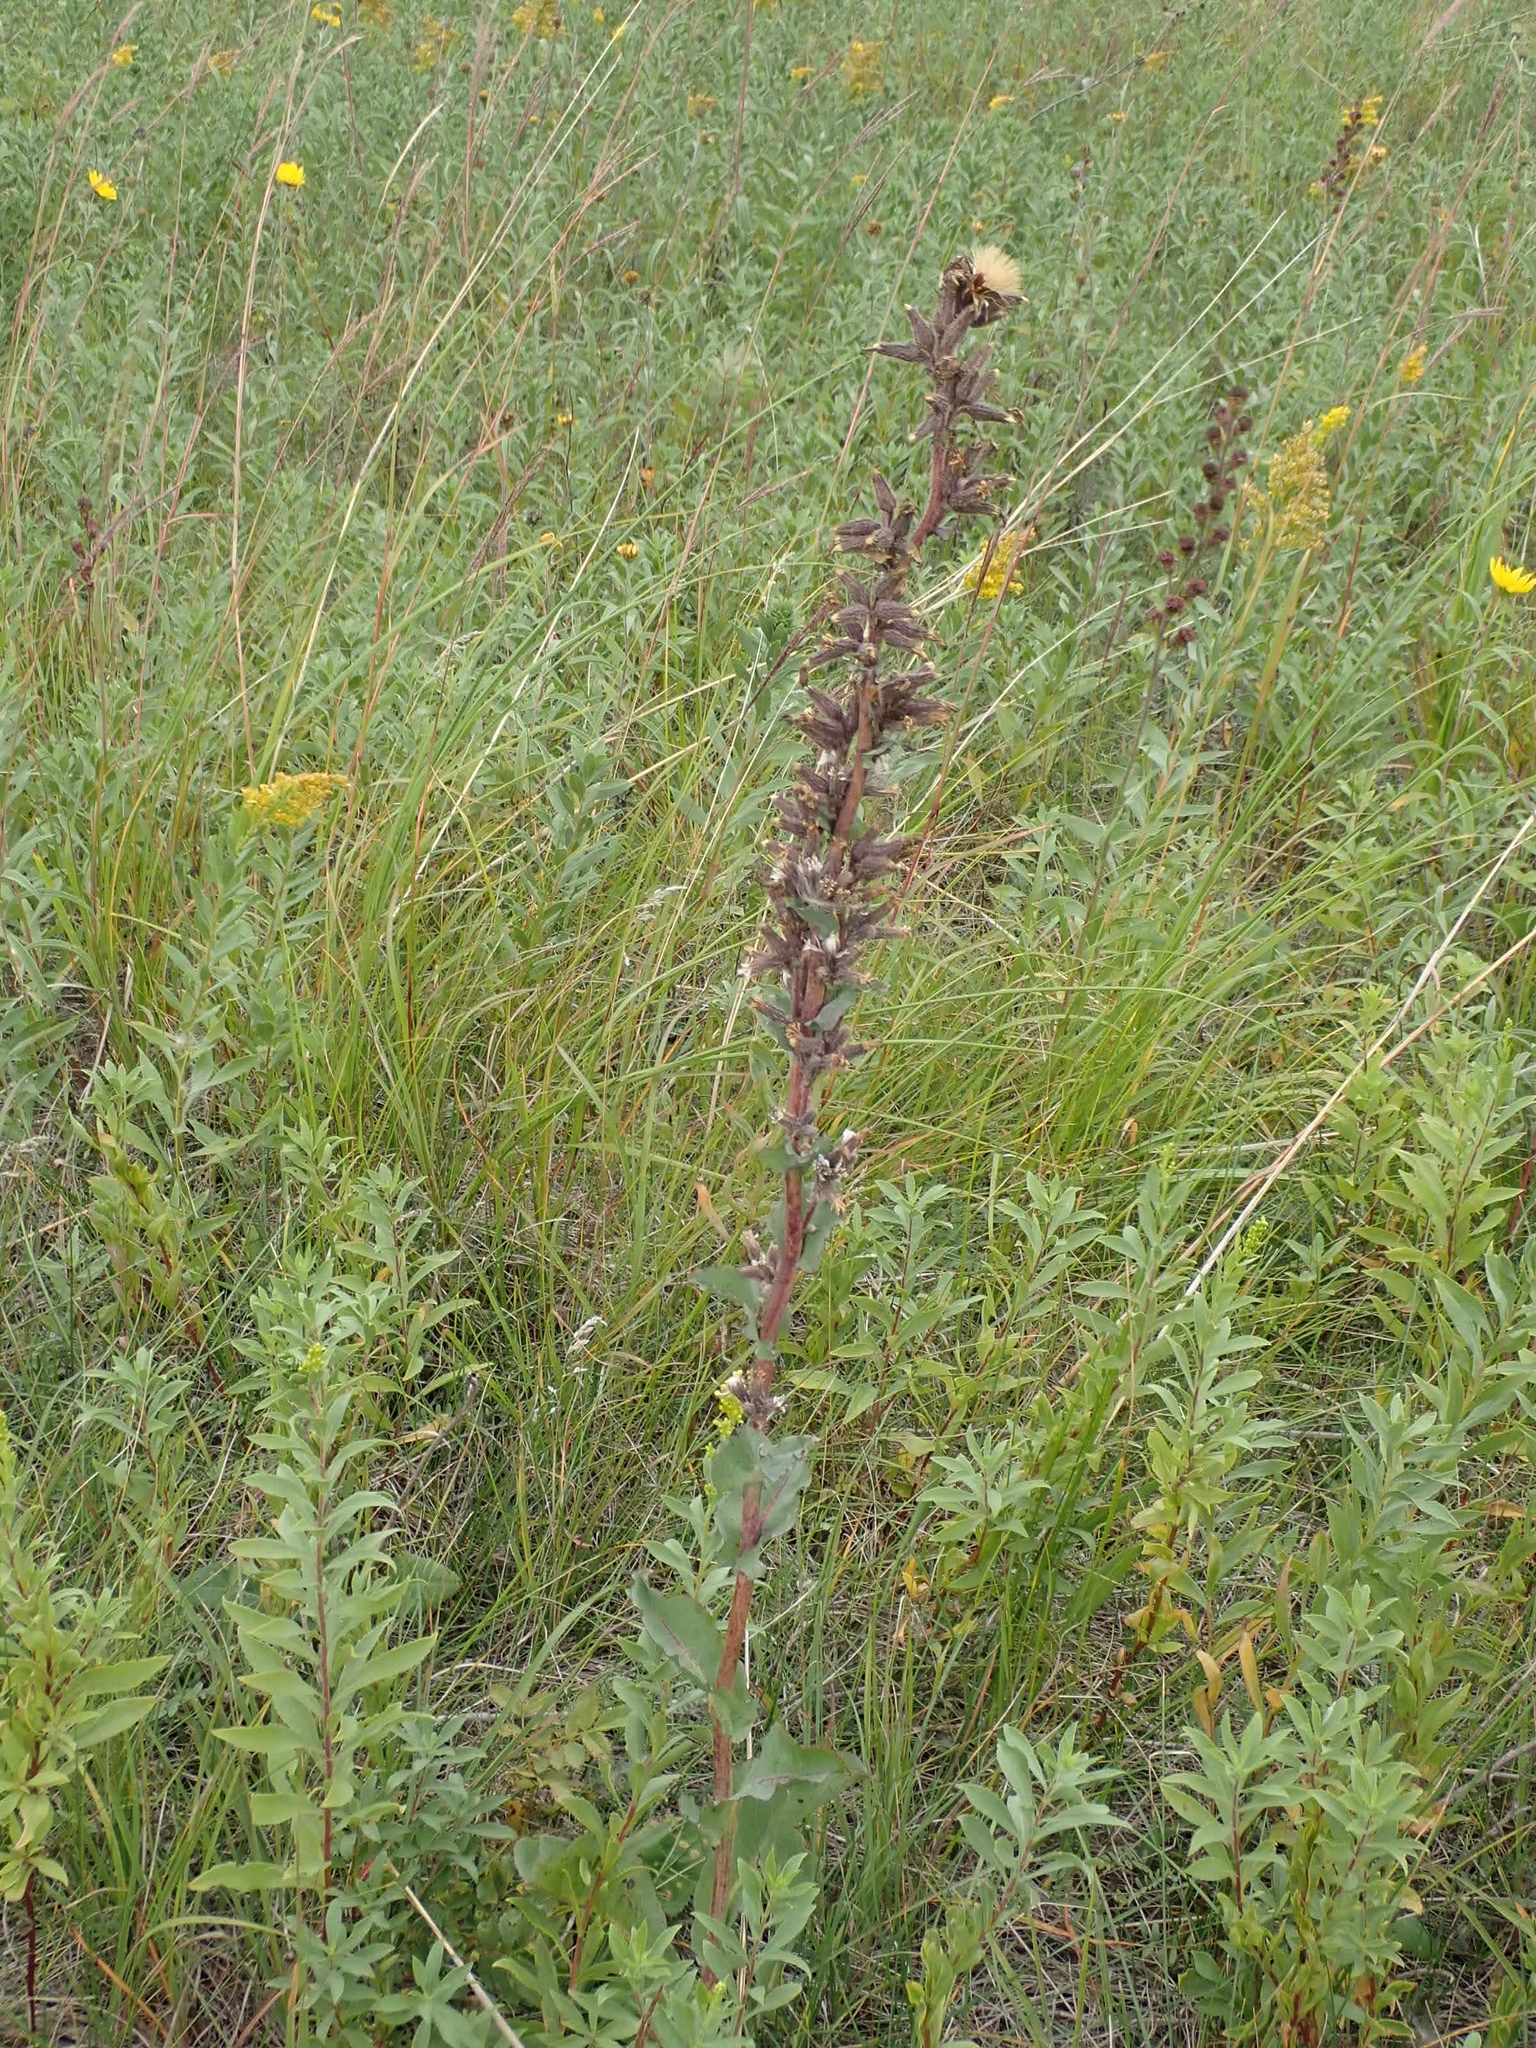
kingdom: Plantae
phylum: Tracheophyta
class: Magnoliopsida
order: Asterales
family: Asteraceae
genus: Nabalus
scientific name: Nabalus racemosus
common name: Glaucous white lettuce
